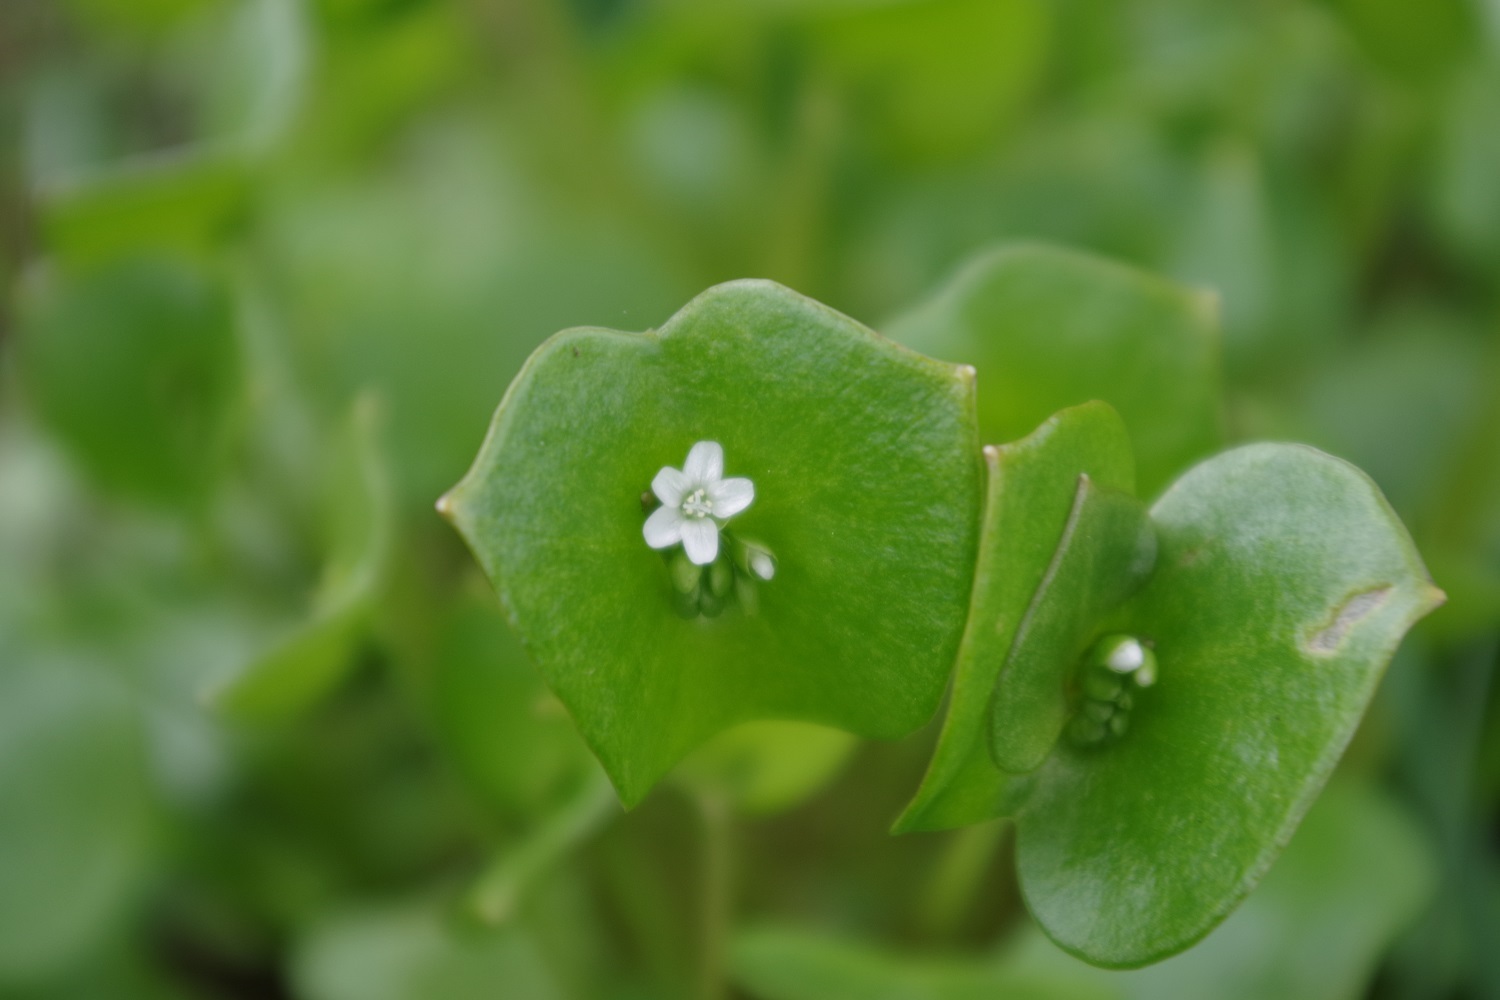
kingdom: Plantae
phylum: Tracheophyta
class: Magnoliopsida
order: Caryophyllales
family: Montiaceae
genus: Claytonia
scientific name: Claytonia perfoliata
